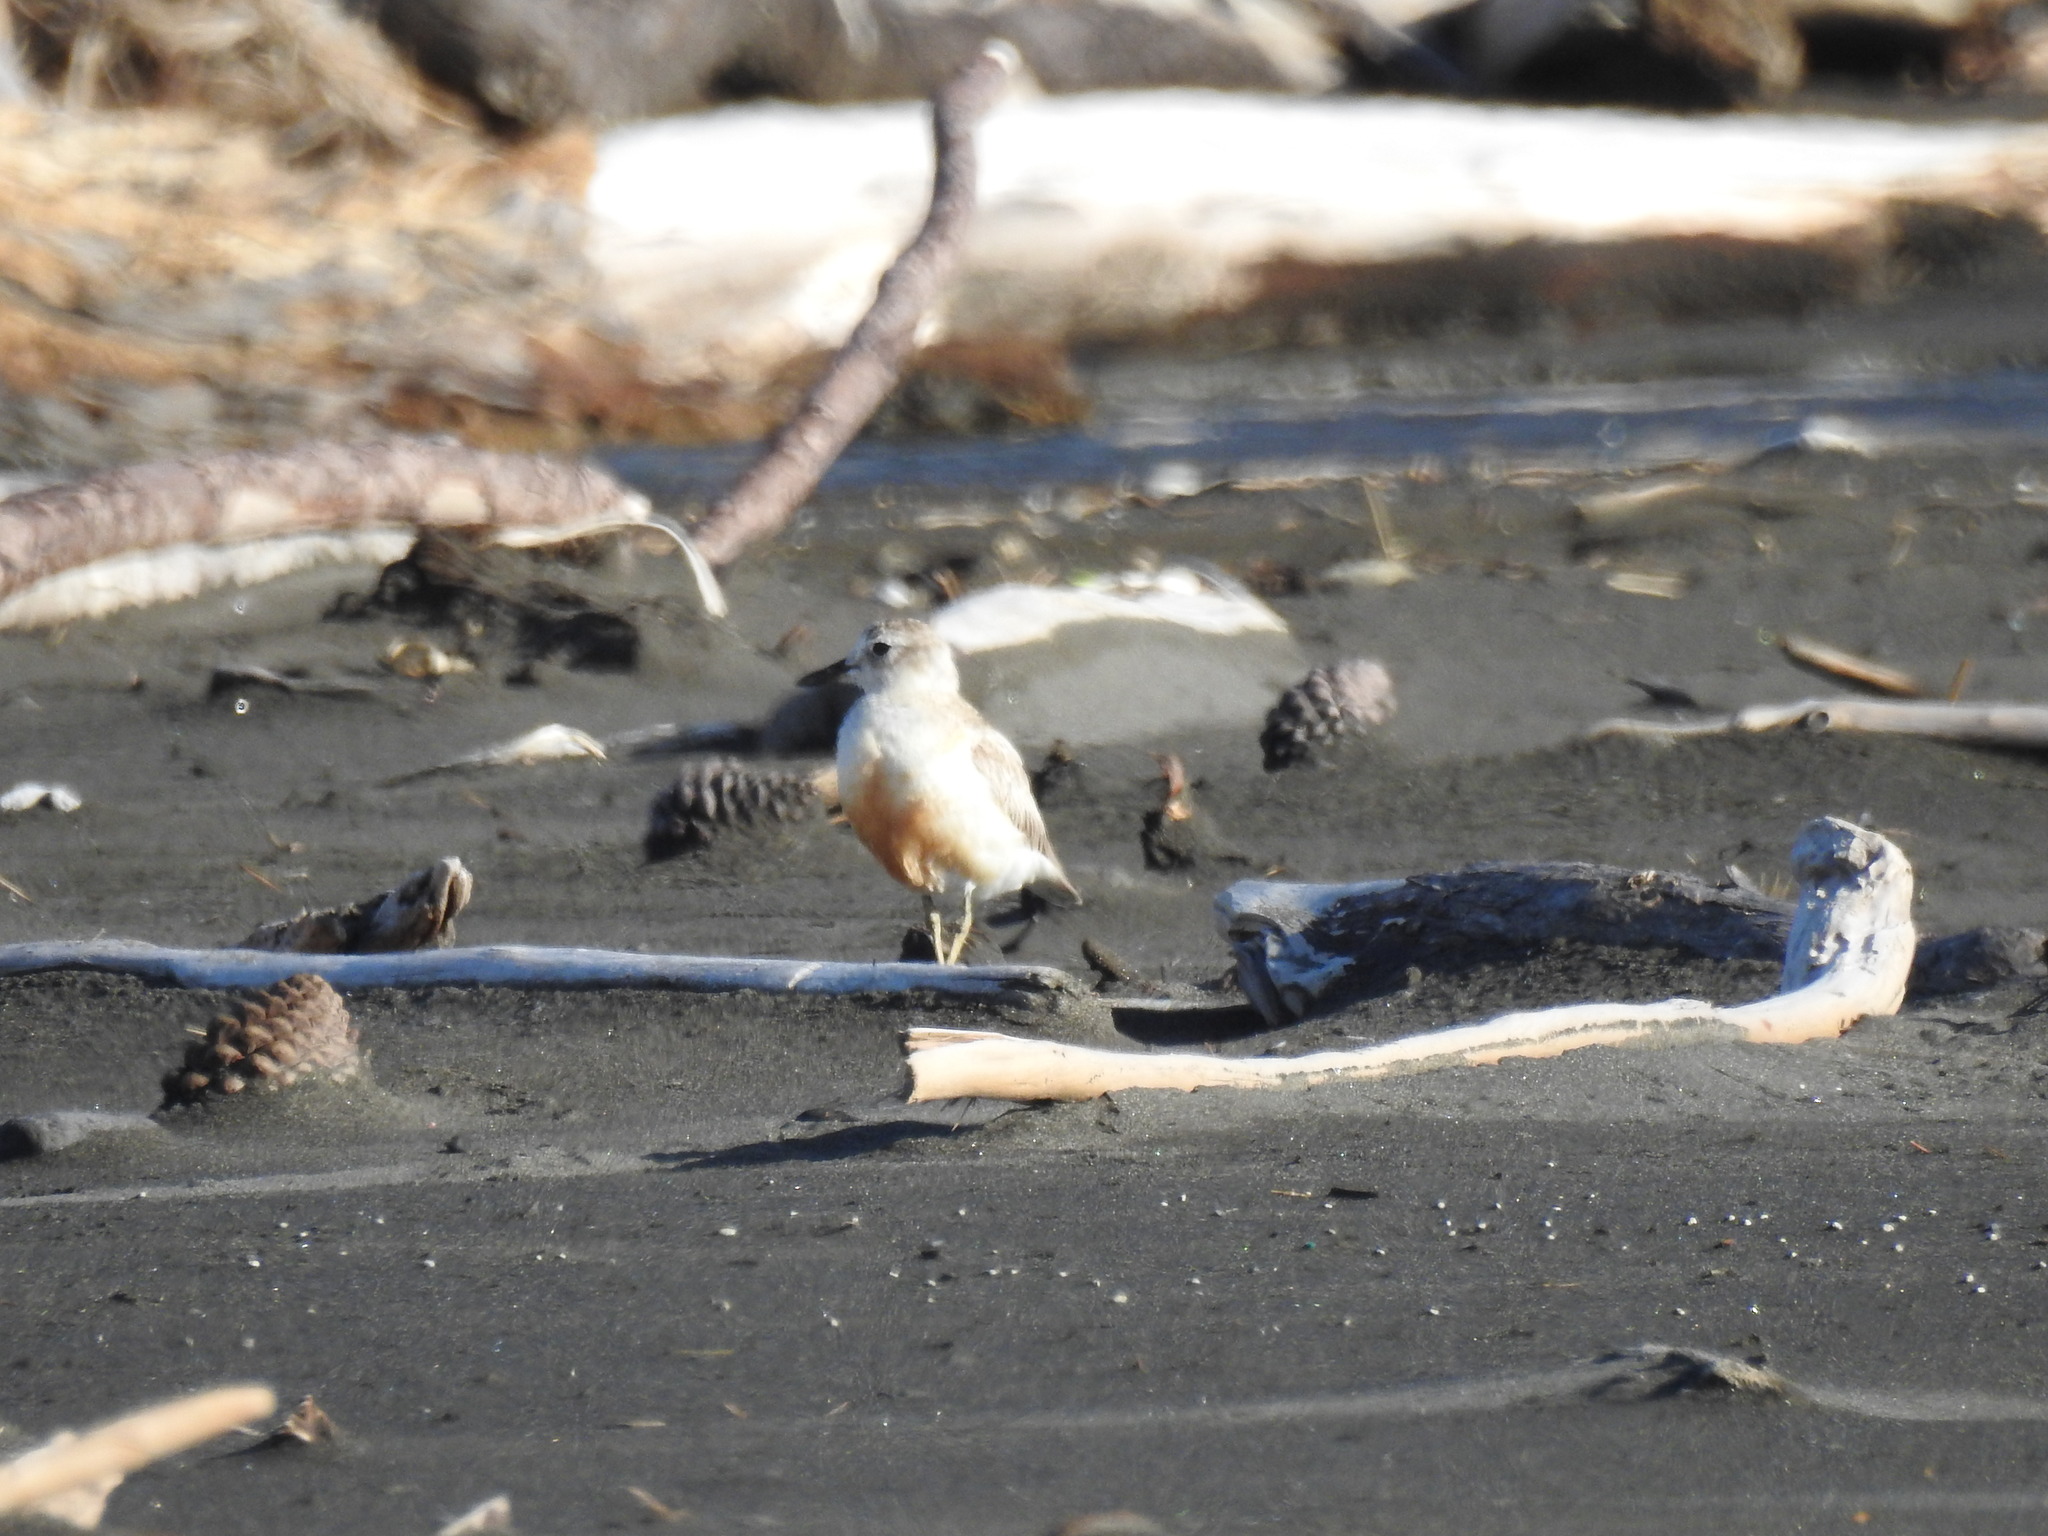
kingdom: Animalia
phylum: Chordata
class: Aves
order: Charadriiformes
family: Charadriidae
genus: Anarhynchus
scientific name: Anarhynchus
